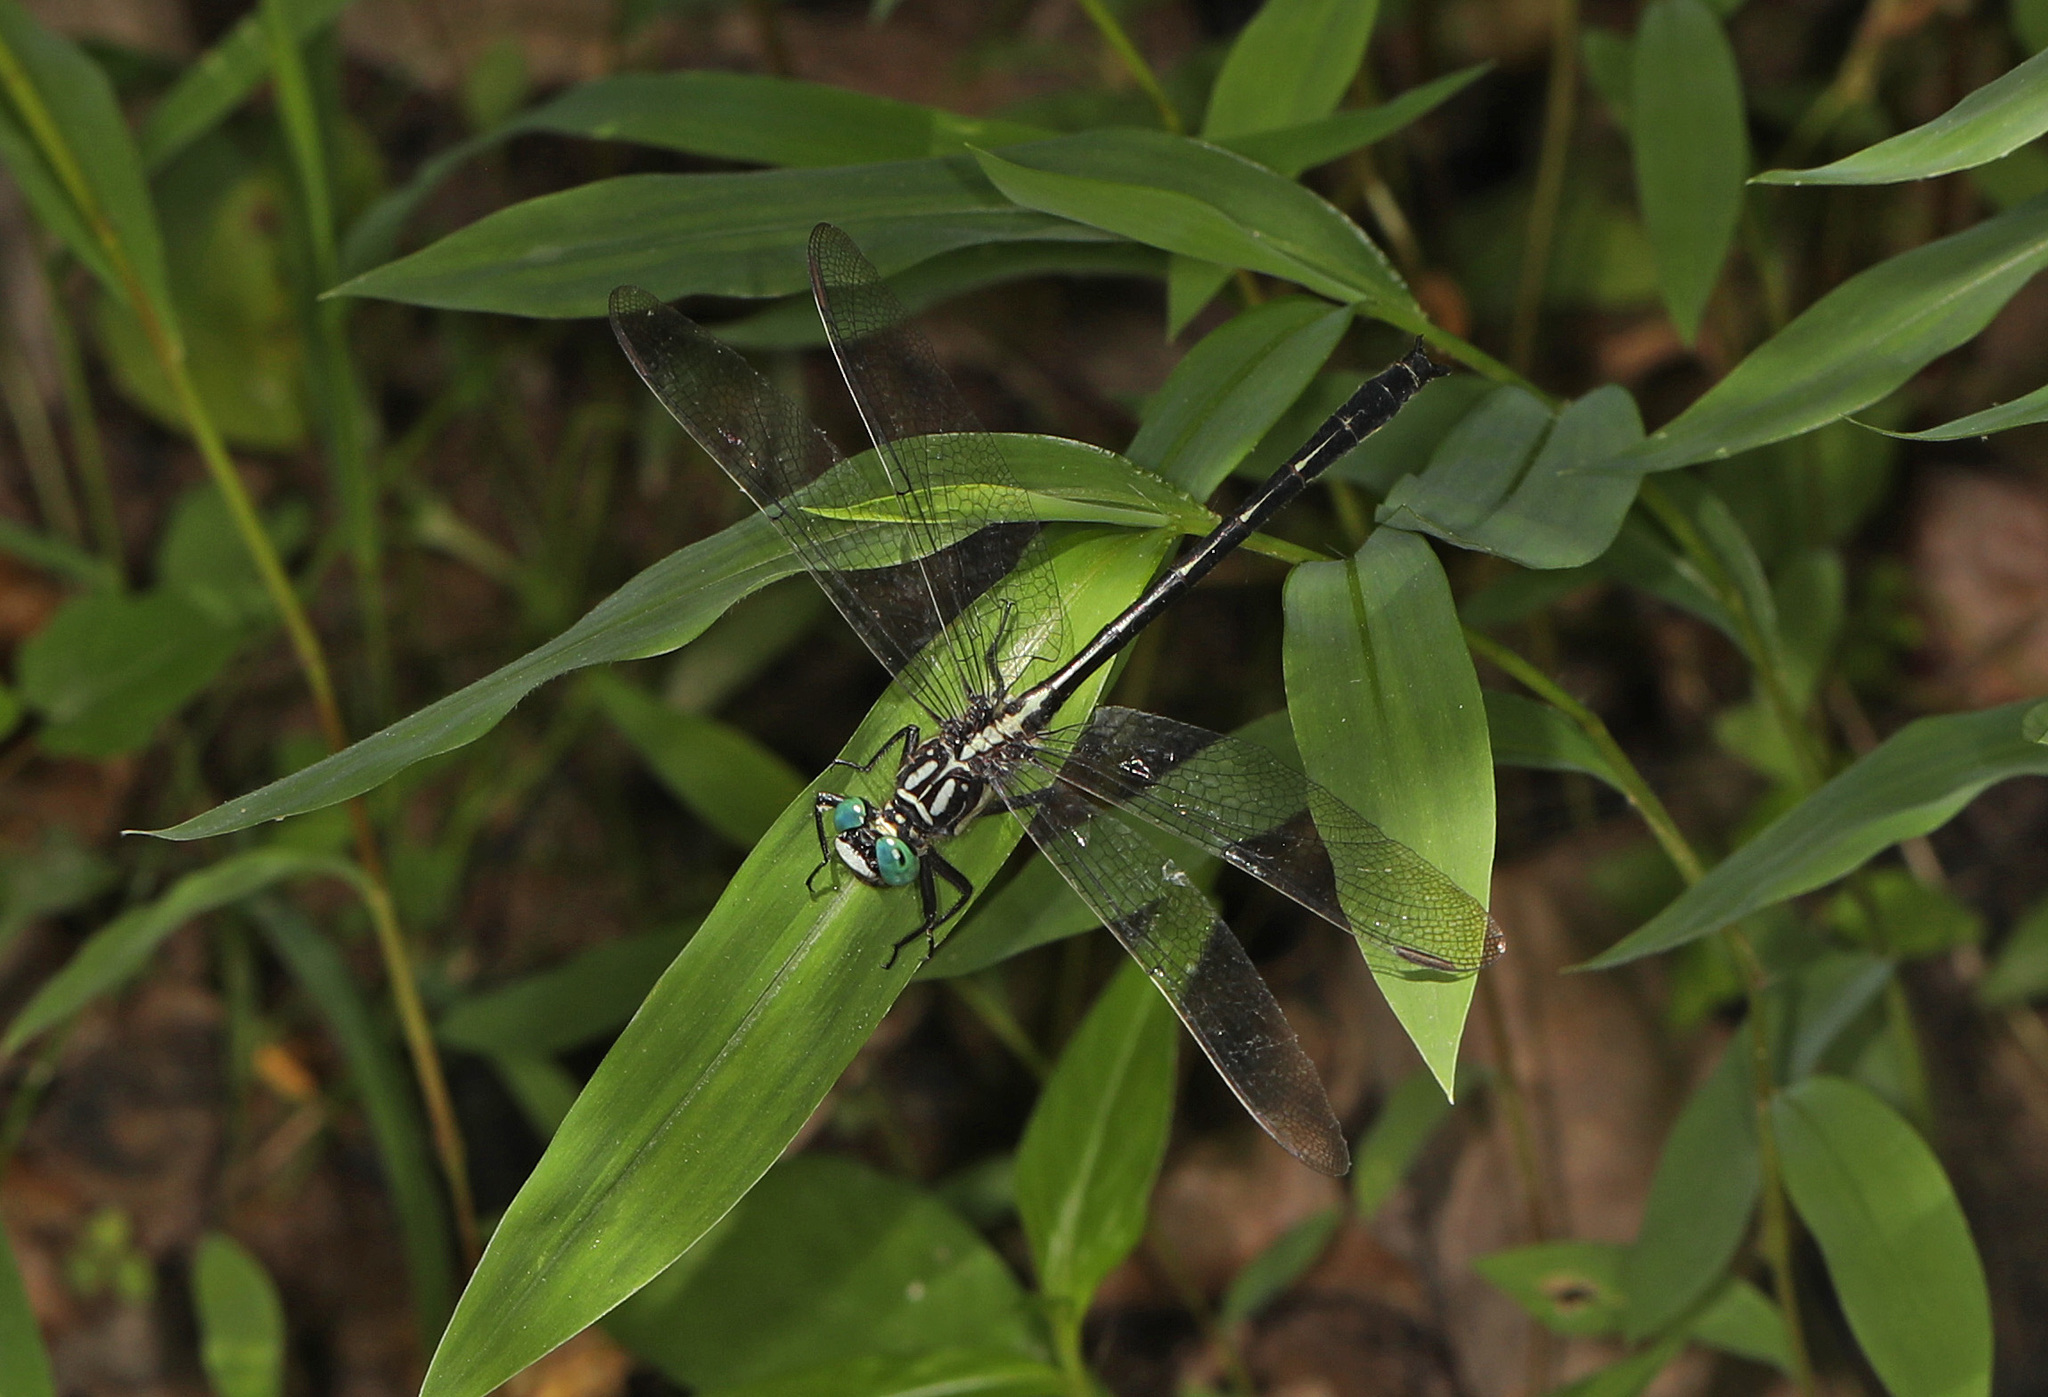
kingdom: Animalia
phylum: Arthropoda
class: Insecta
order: Odonata
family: Gomphidae
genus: Stenogomphurus
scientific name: Stenogomphurus rogersi
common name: Sable clubtail
